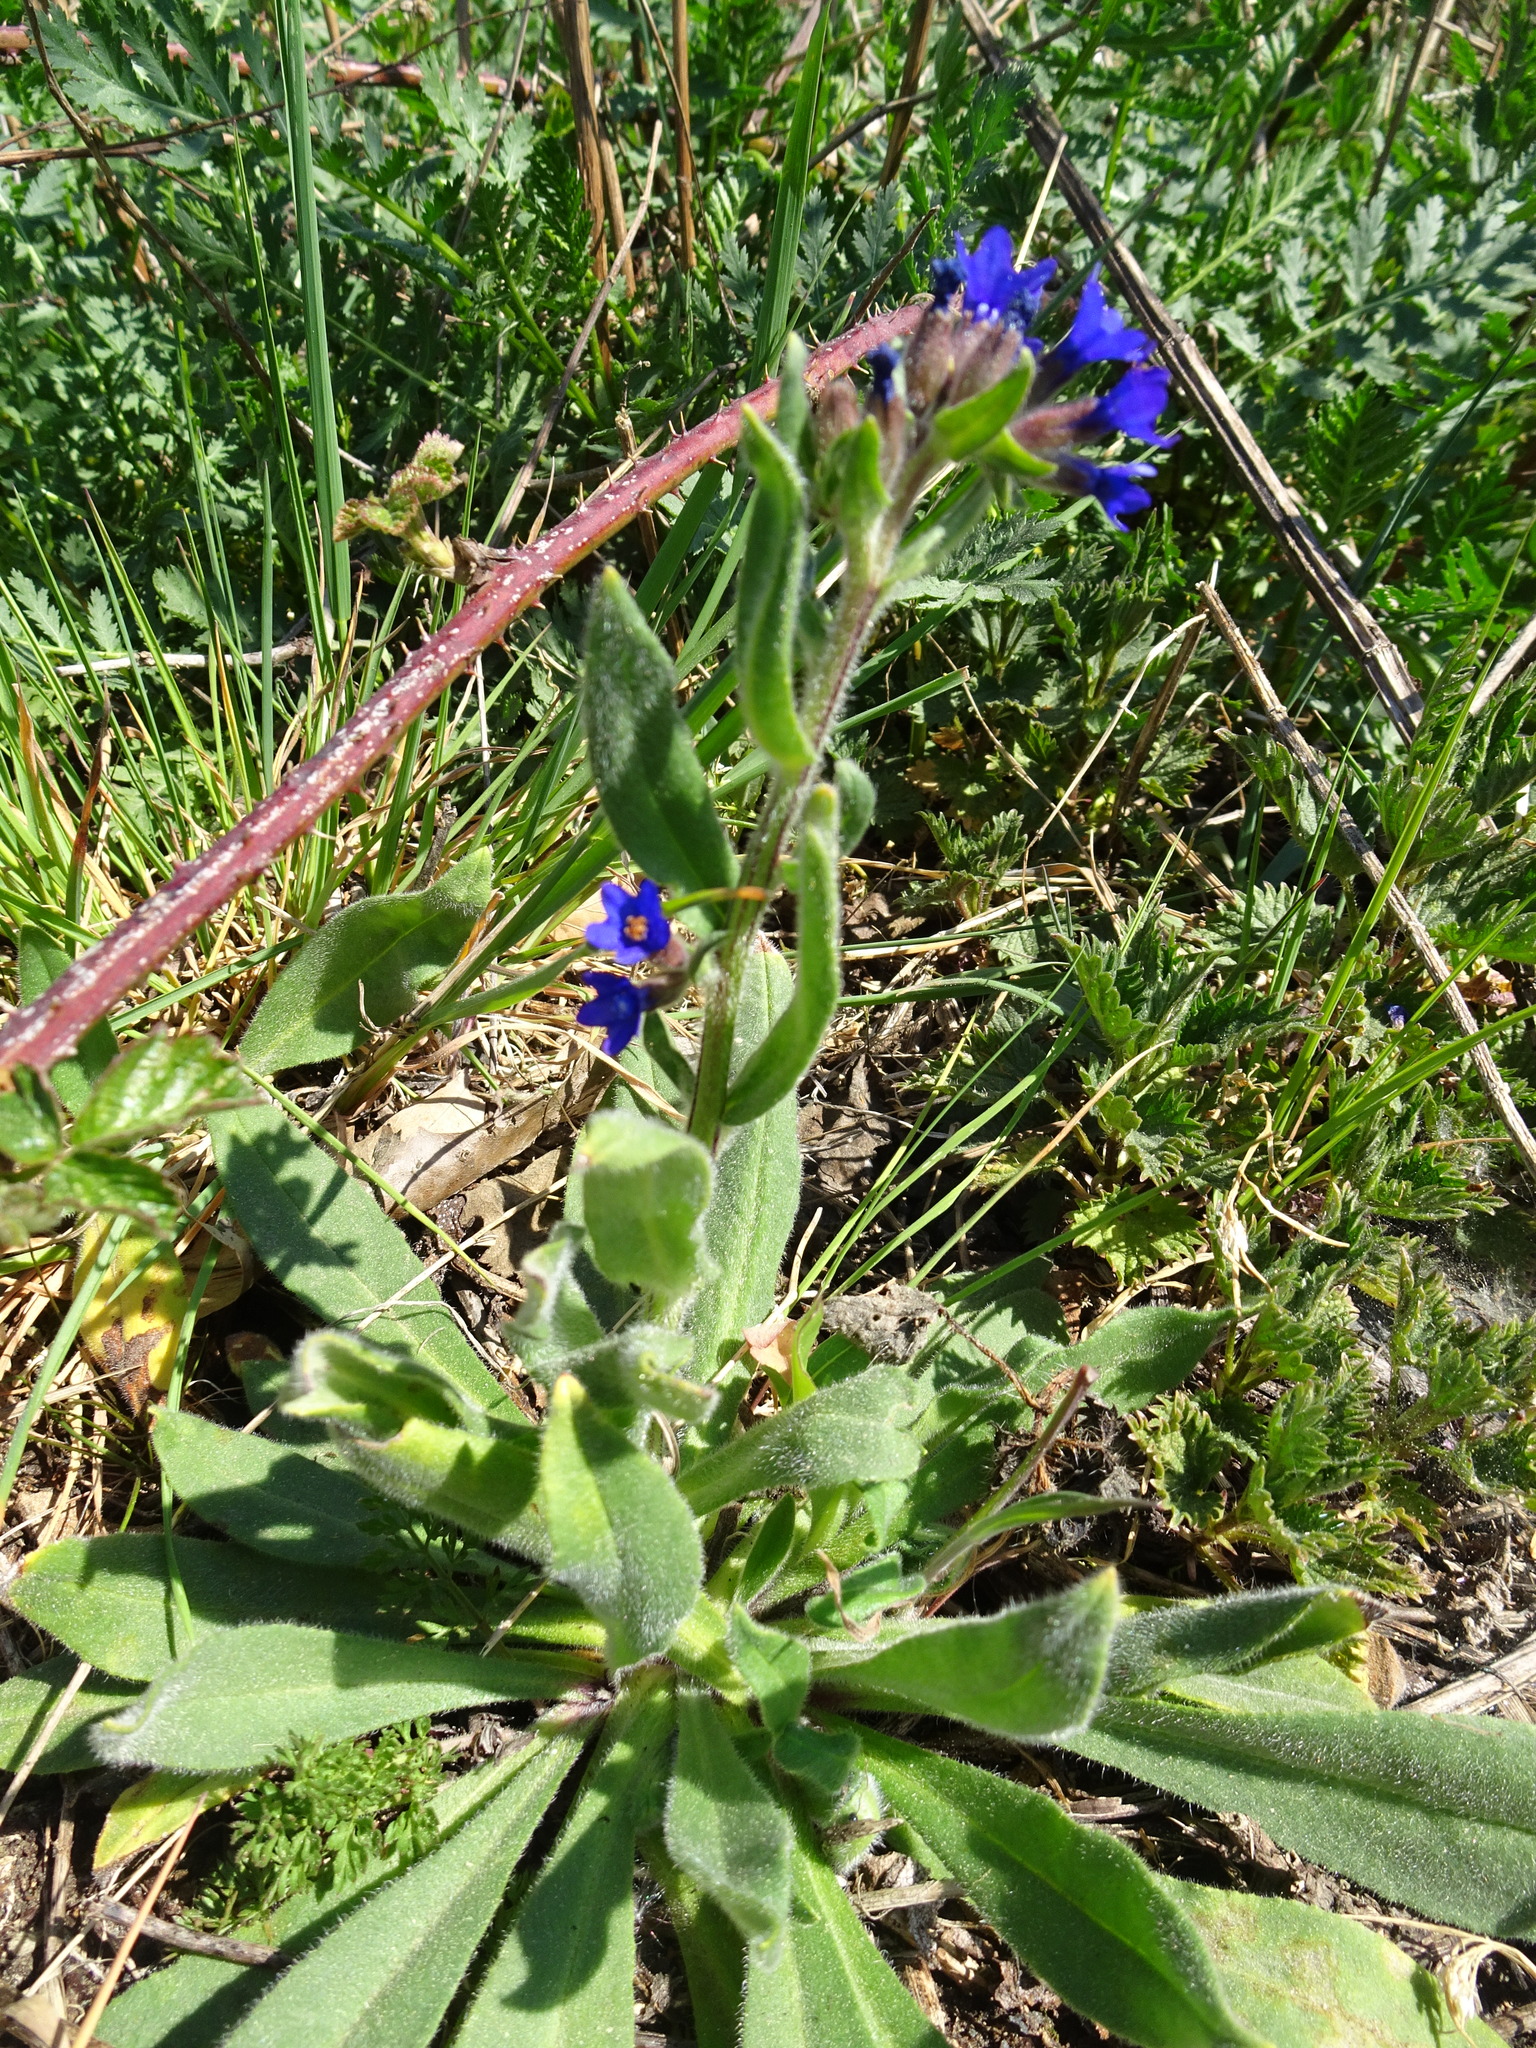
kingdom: Plantae
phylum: Tracheophyta
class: Magnoliopsida
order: Boraginales
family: Boraginaceae
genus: Anchusa
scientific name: Anchusa officinalis
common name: Alkanet
